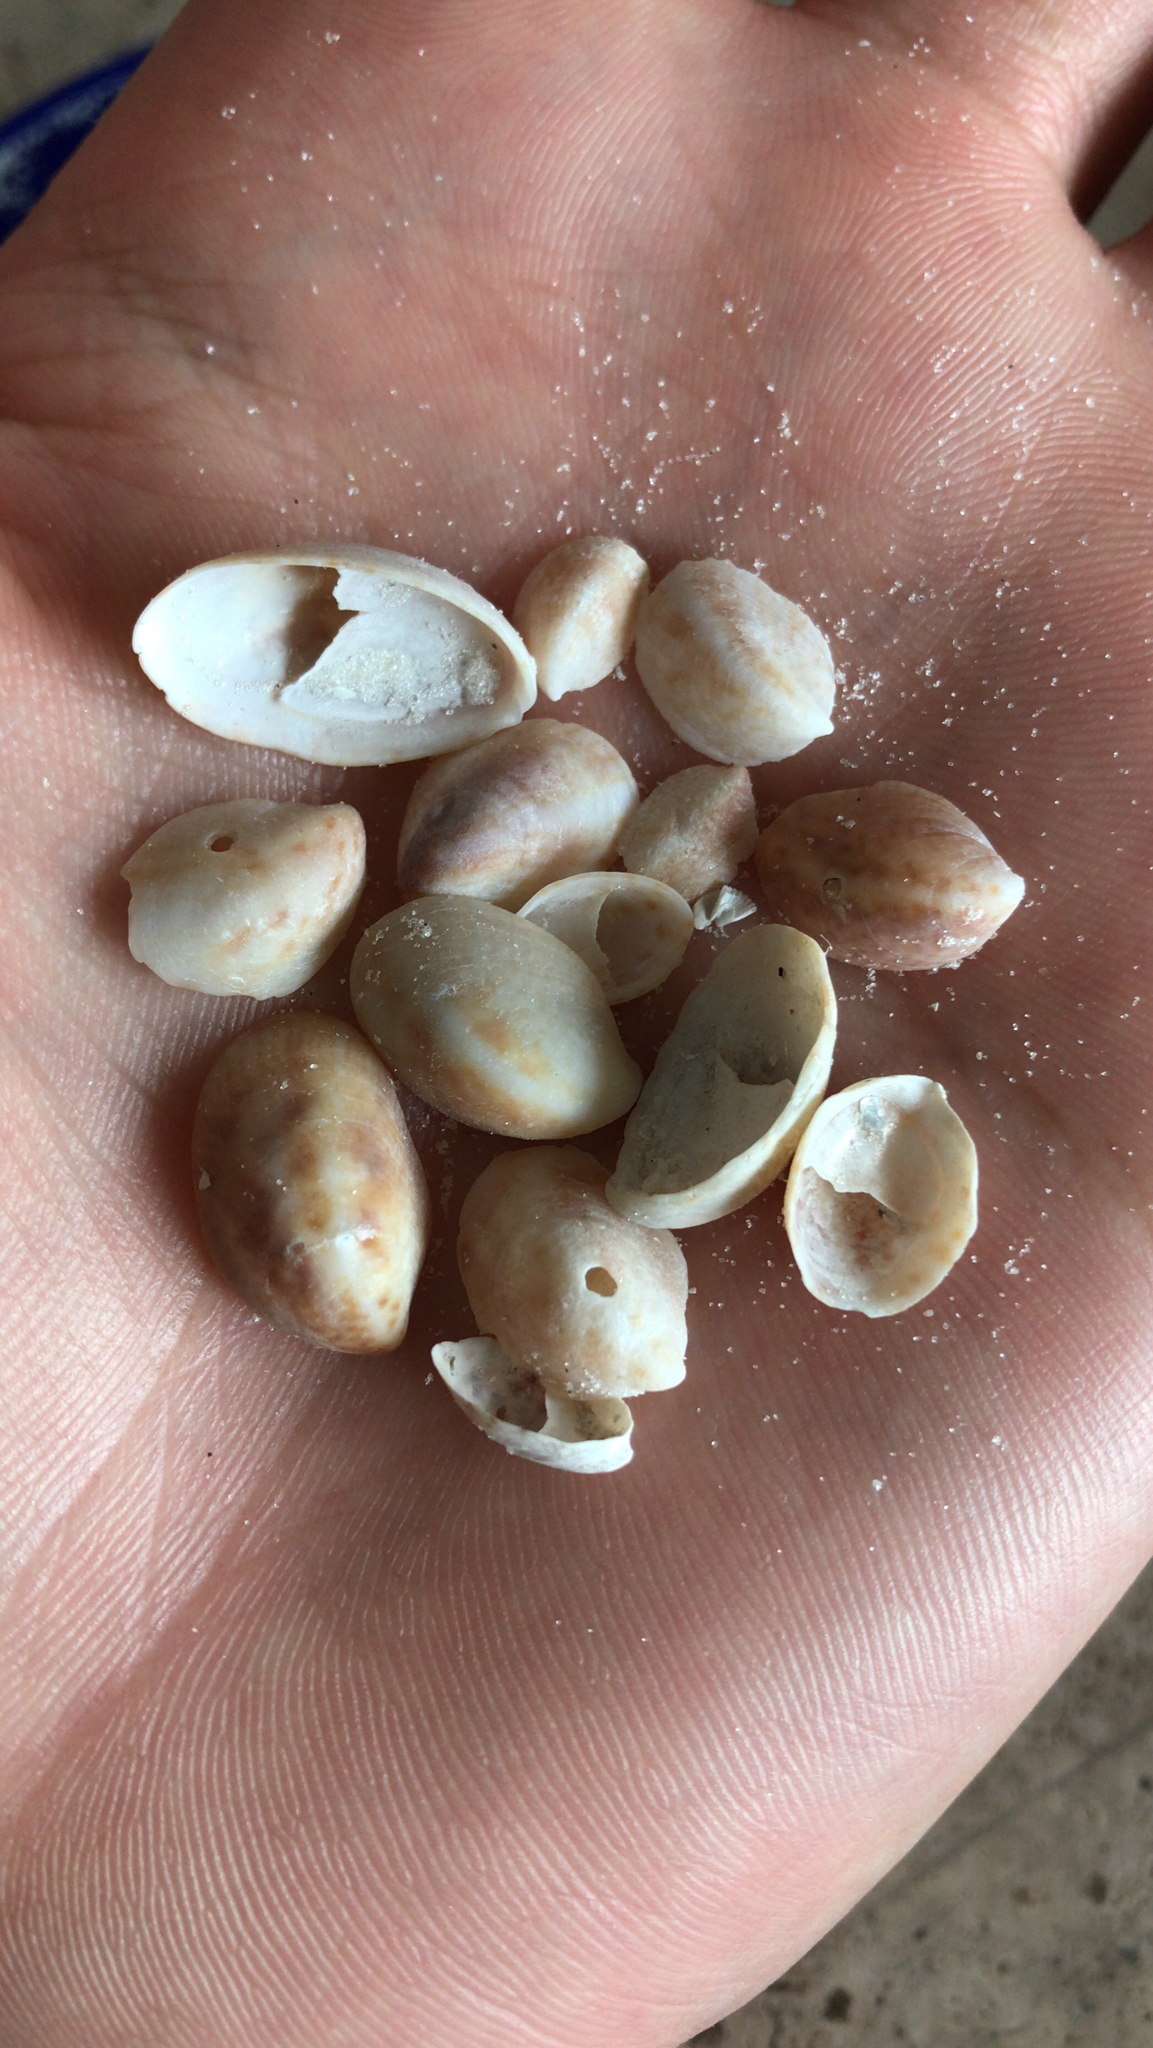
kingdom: Animalia
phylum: Mollusca
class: Gastropoda
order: Littorinimorpha
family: Calyptraeidae
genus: Crepidula
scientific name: Crepidula fornicata
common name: Slipper limpet
